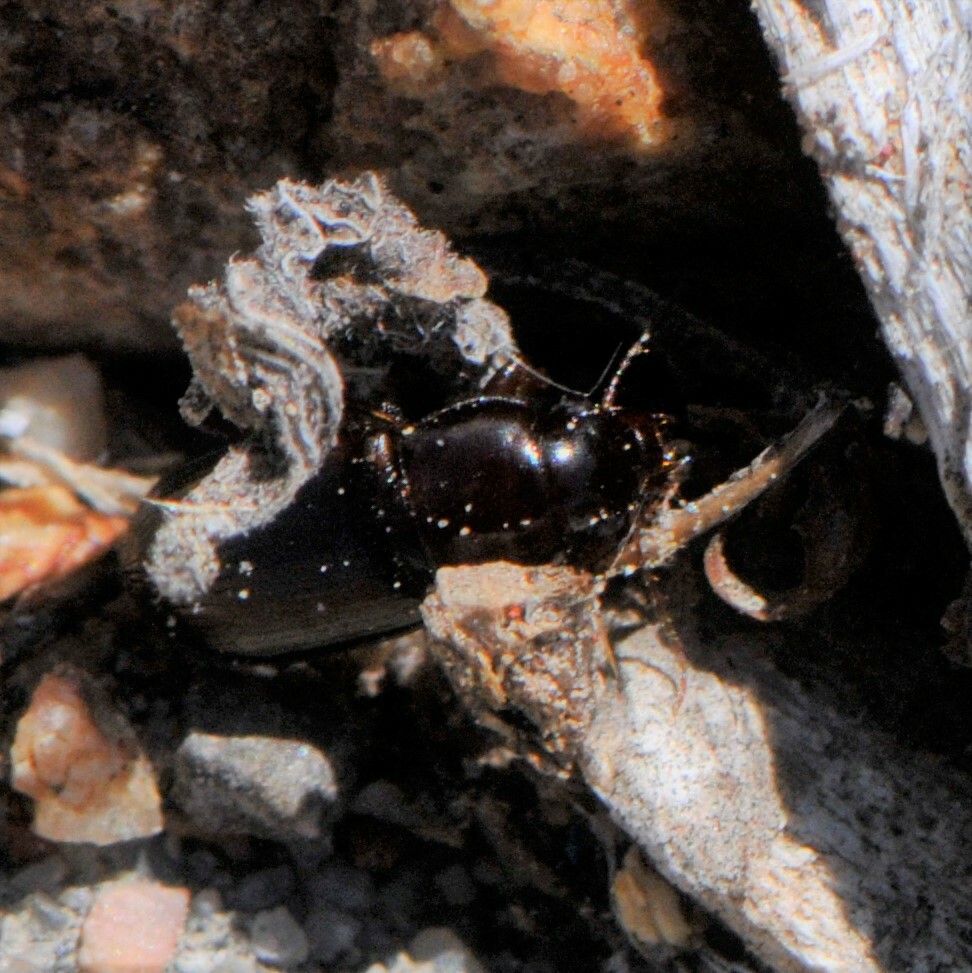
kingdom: Animalia
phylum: Arthropoda
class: Insecta
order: Coleoptera
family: Carabidae
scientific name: Carabidae
